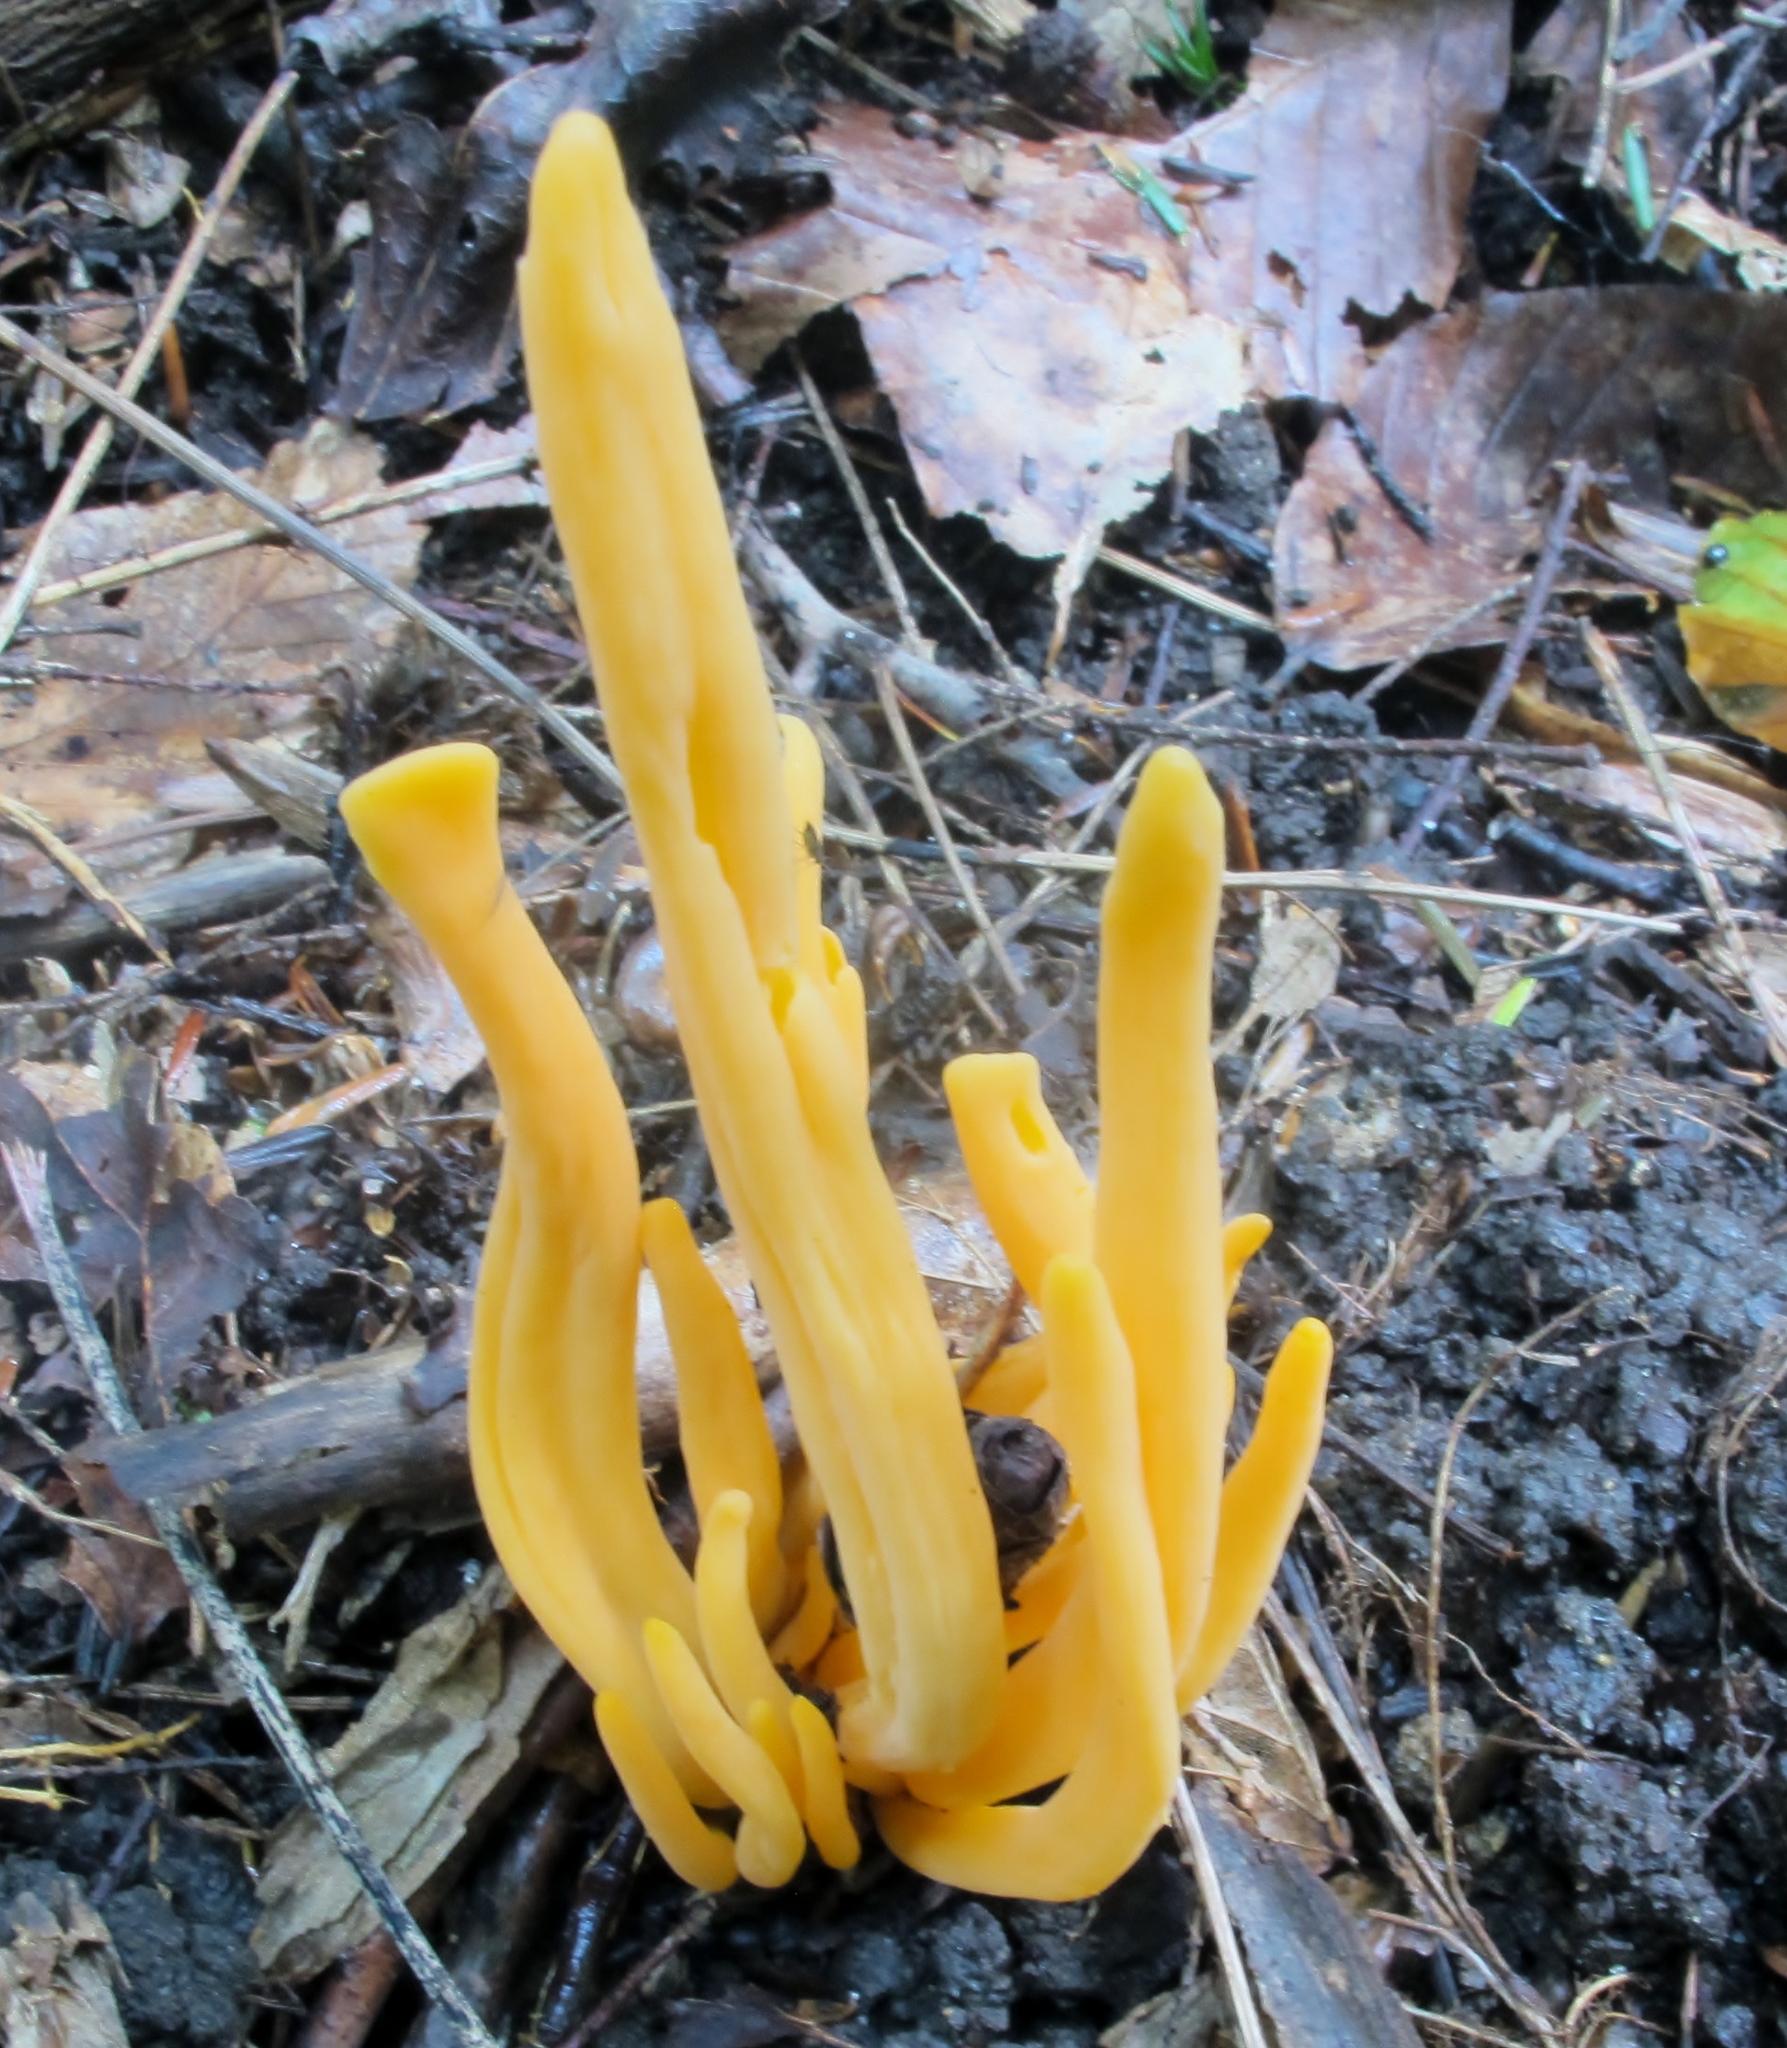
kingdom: Fungi
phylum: Basidiomycota
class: Agaricomycetes
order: Agaricales
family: Clavariaceae
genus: Clavulinopsis
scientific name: Clavulinopsis aurantiocinnabarina
